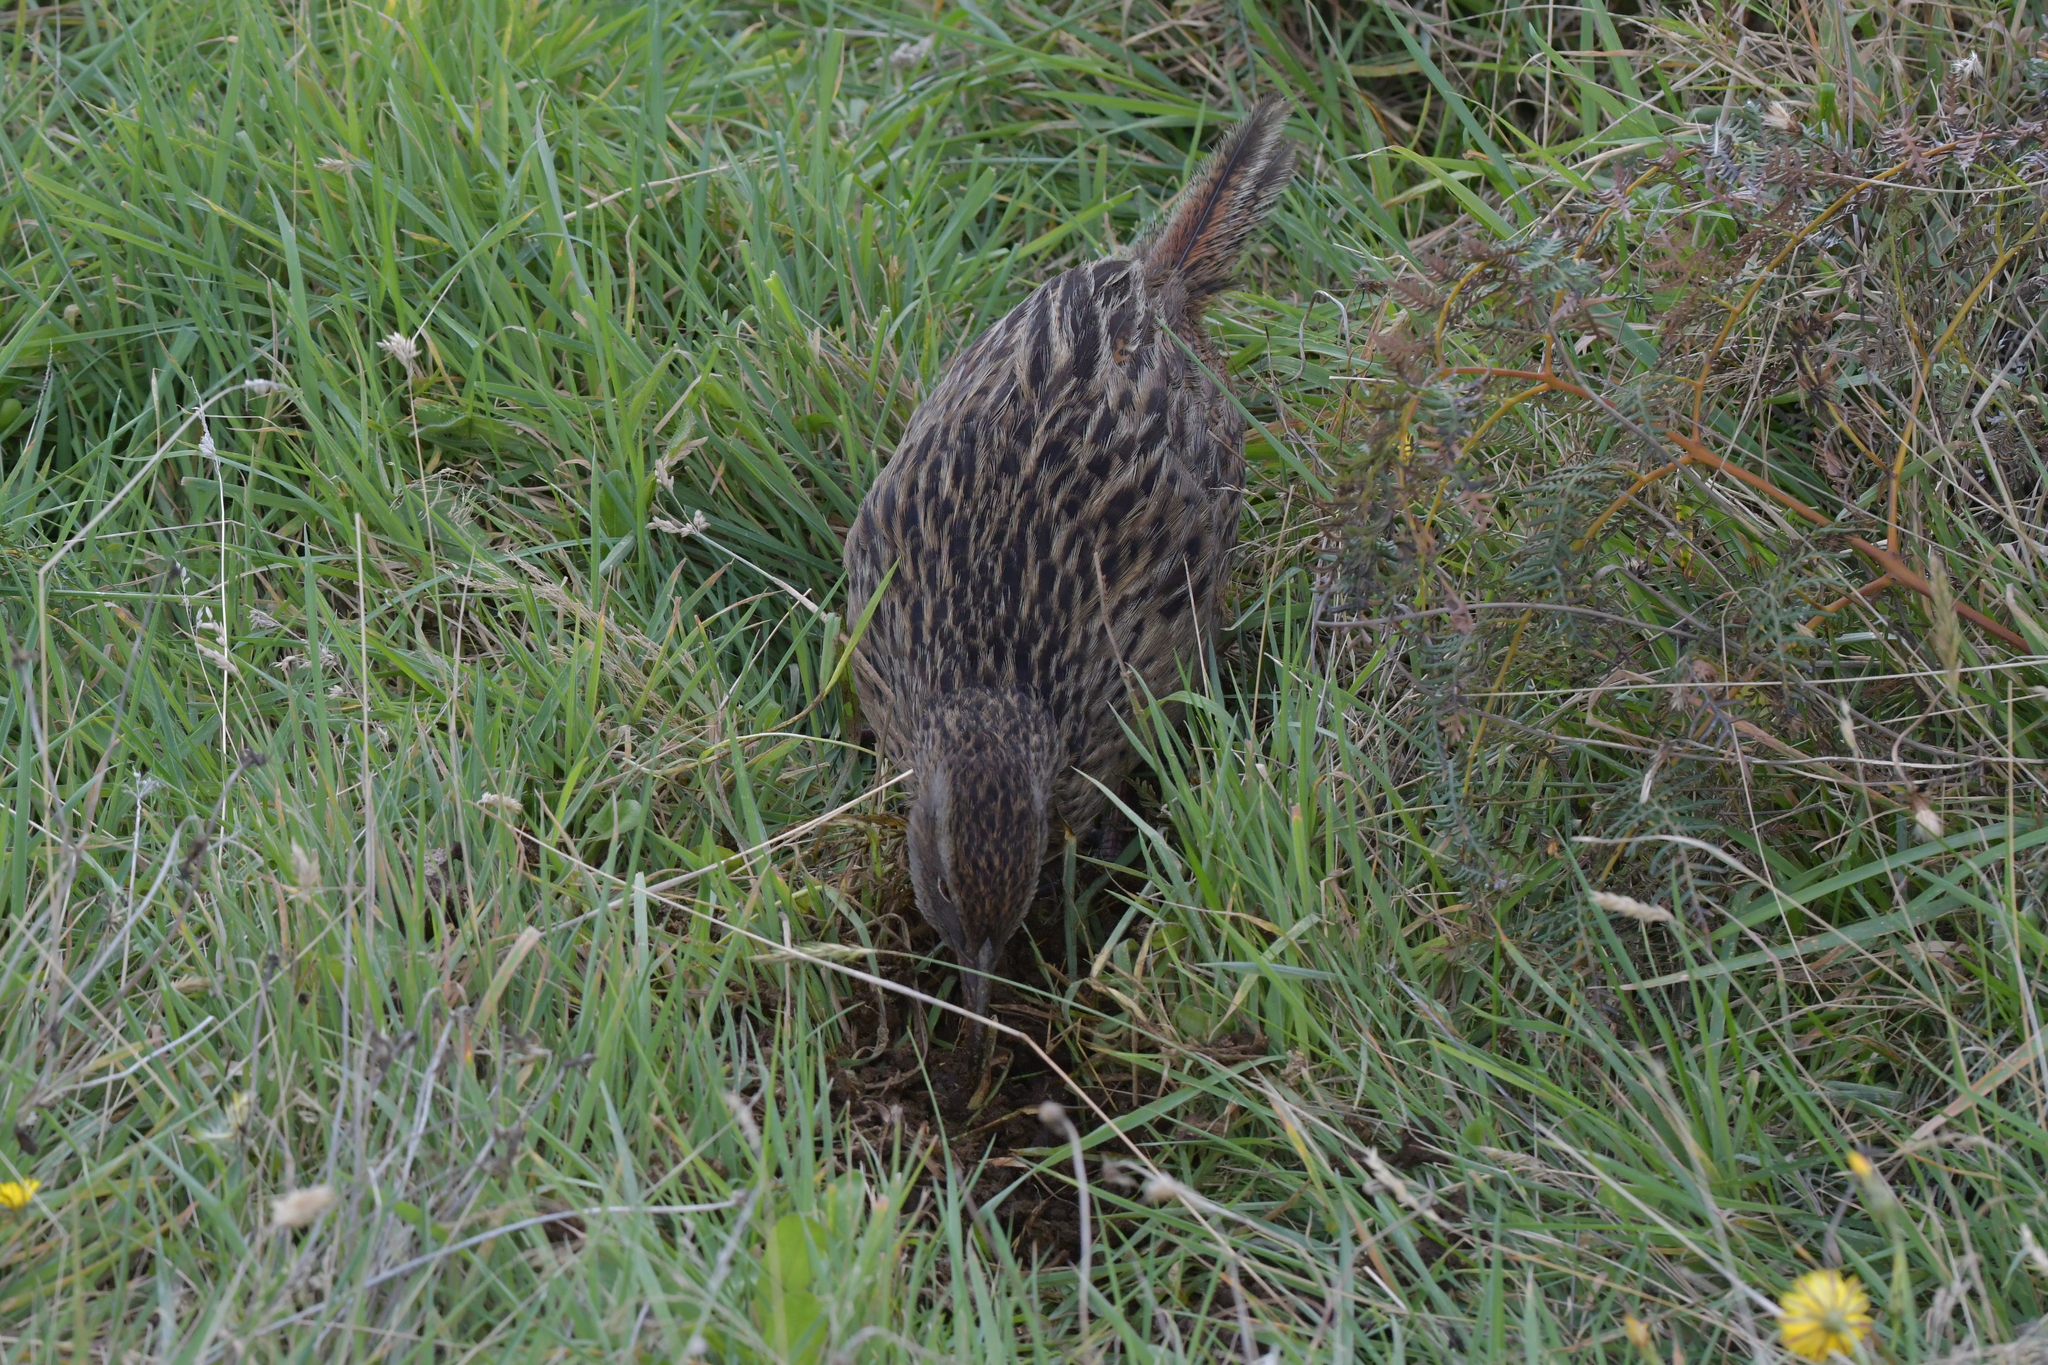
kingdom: Animalia
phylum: Chordata
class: Aves
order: Gruiformes
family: Rallidae
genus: Gallirallus
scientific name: Gallirallus australis
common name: Weka
